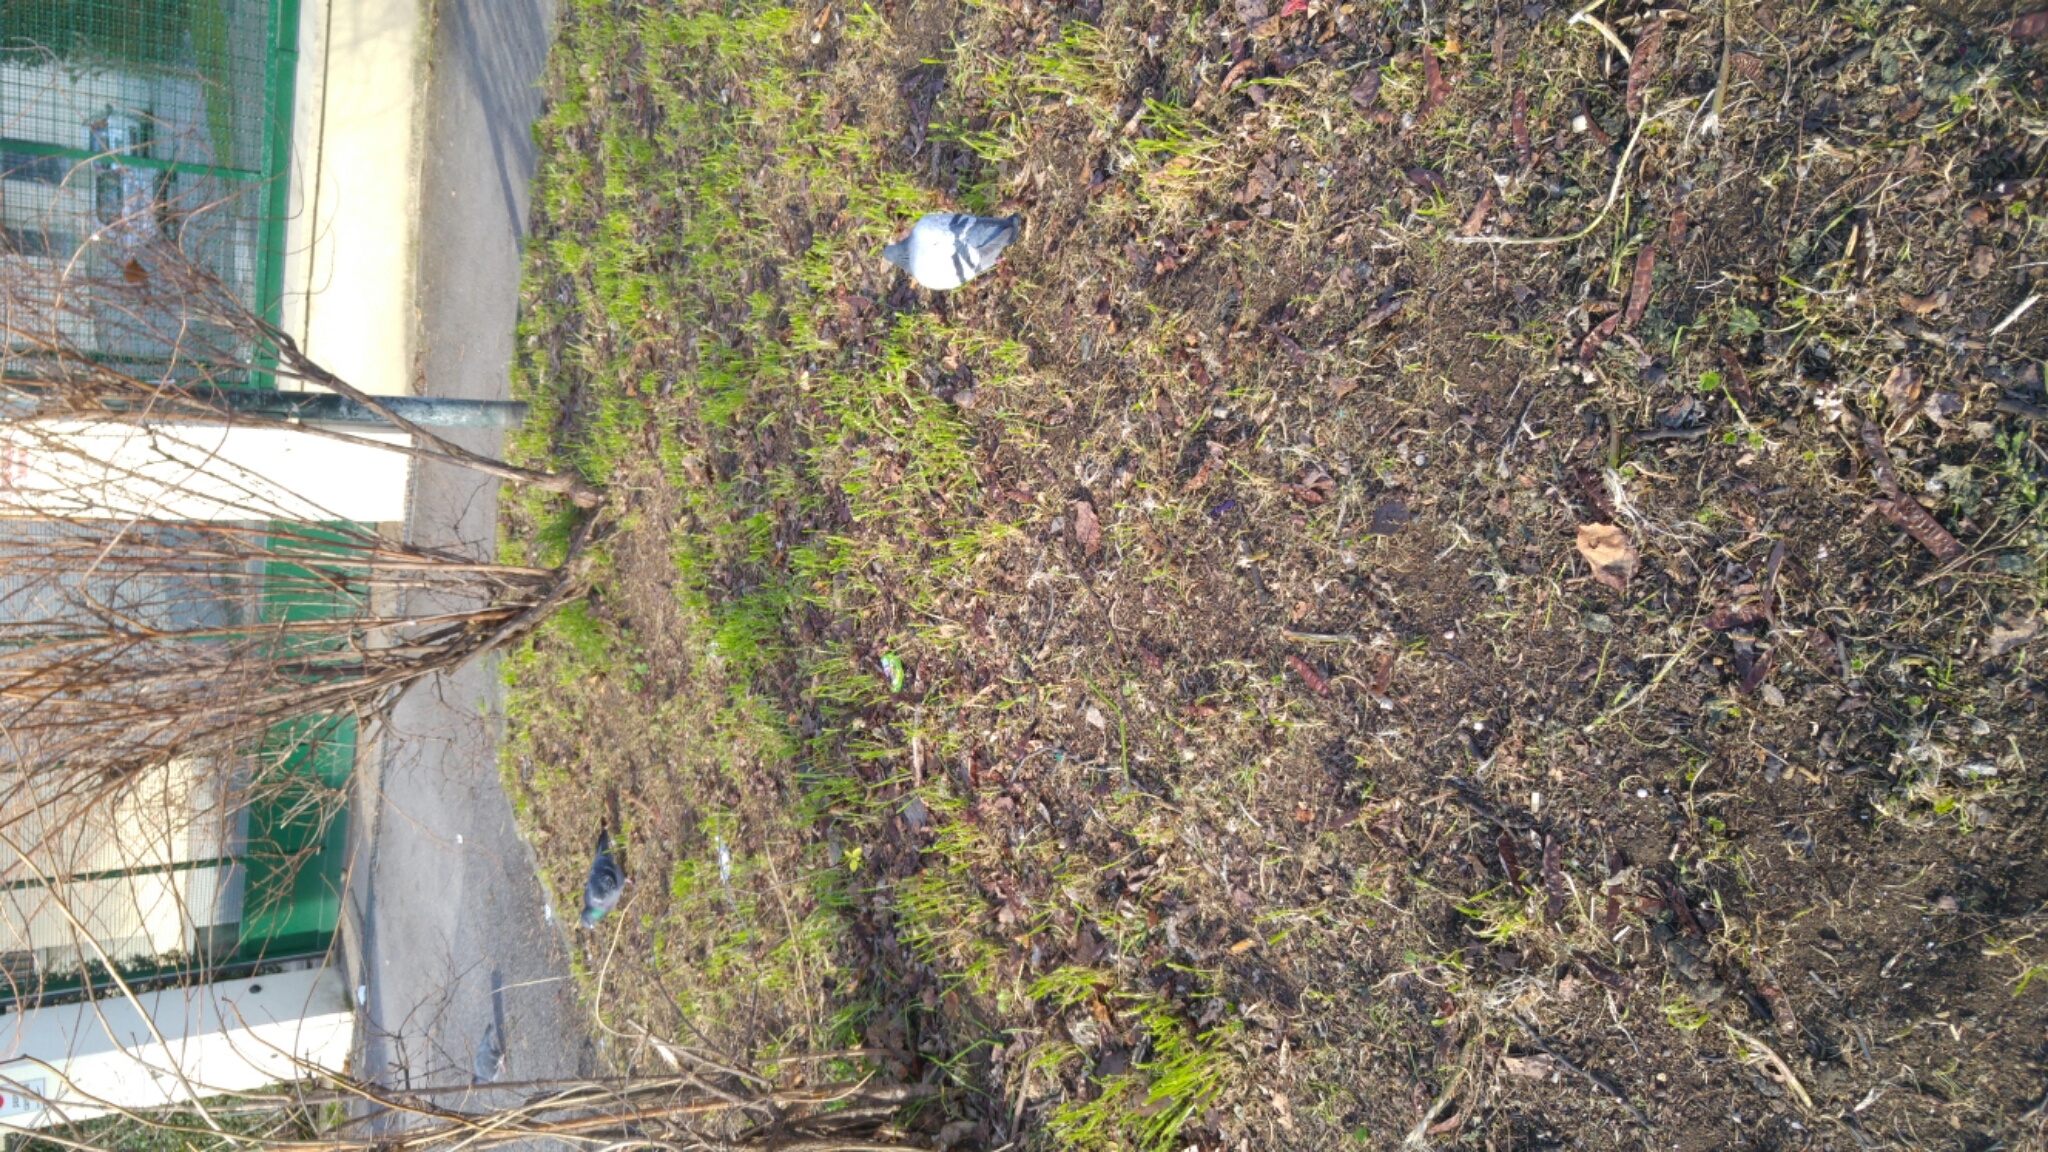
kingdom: Animalia
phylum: Chordata
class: Aves
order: Columbiformes
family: Columbidae
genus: Columba
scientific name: Columba livia
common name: Rock pigeon
